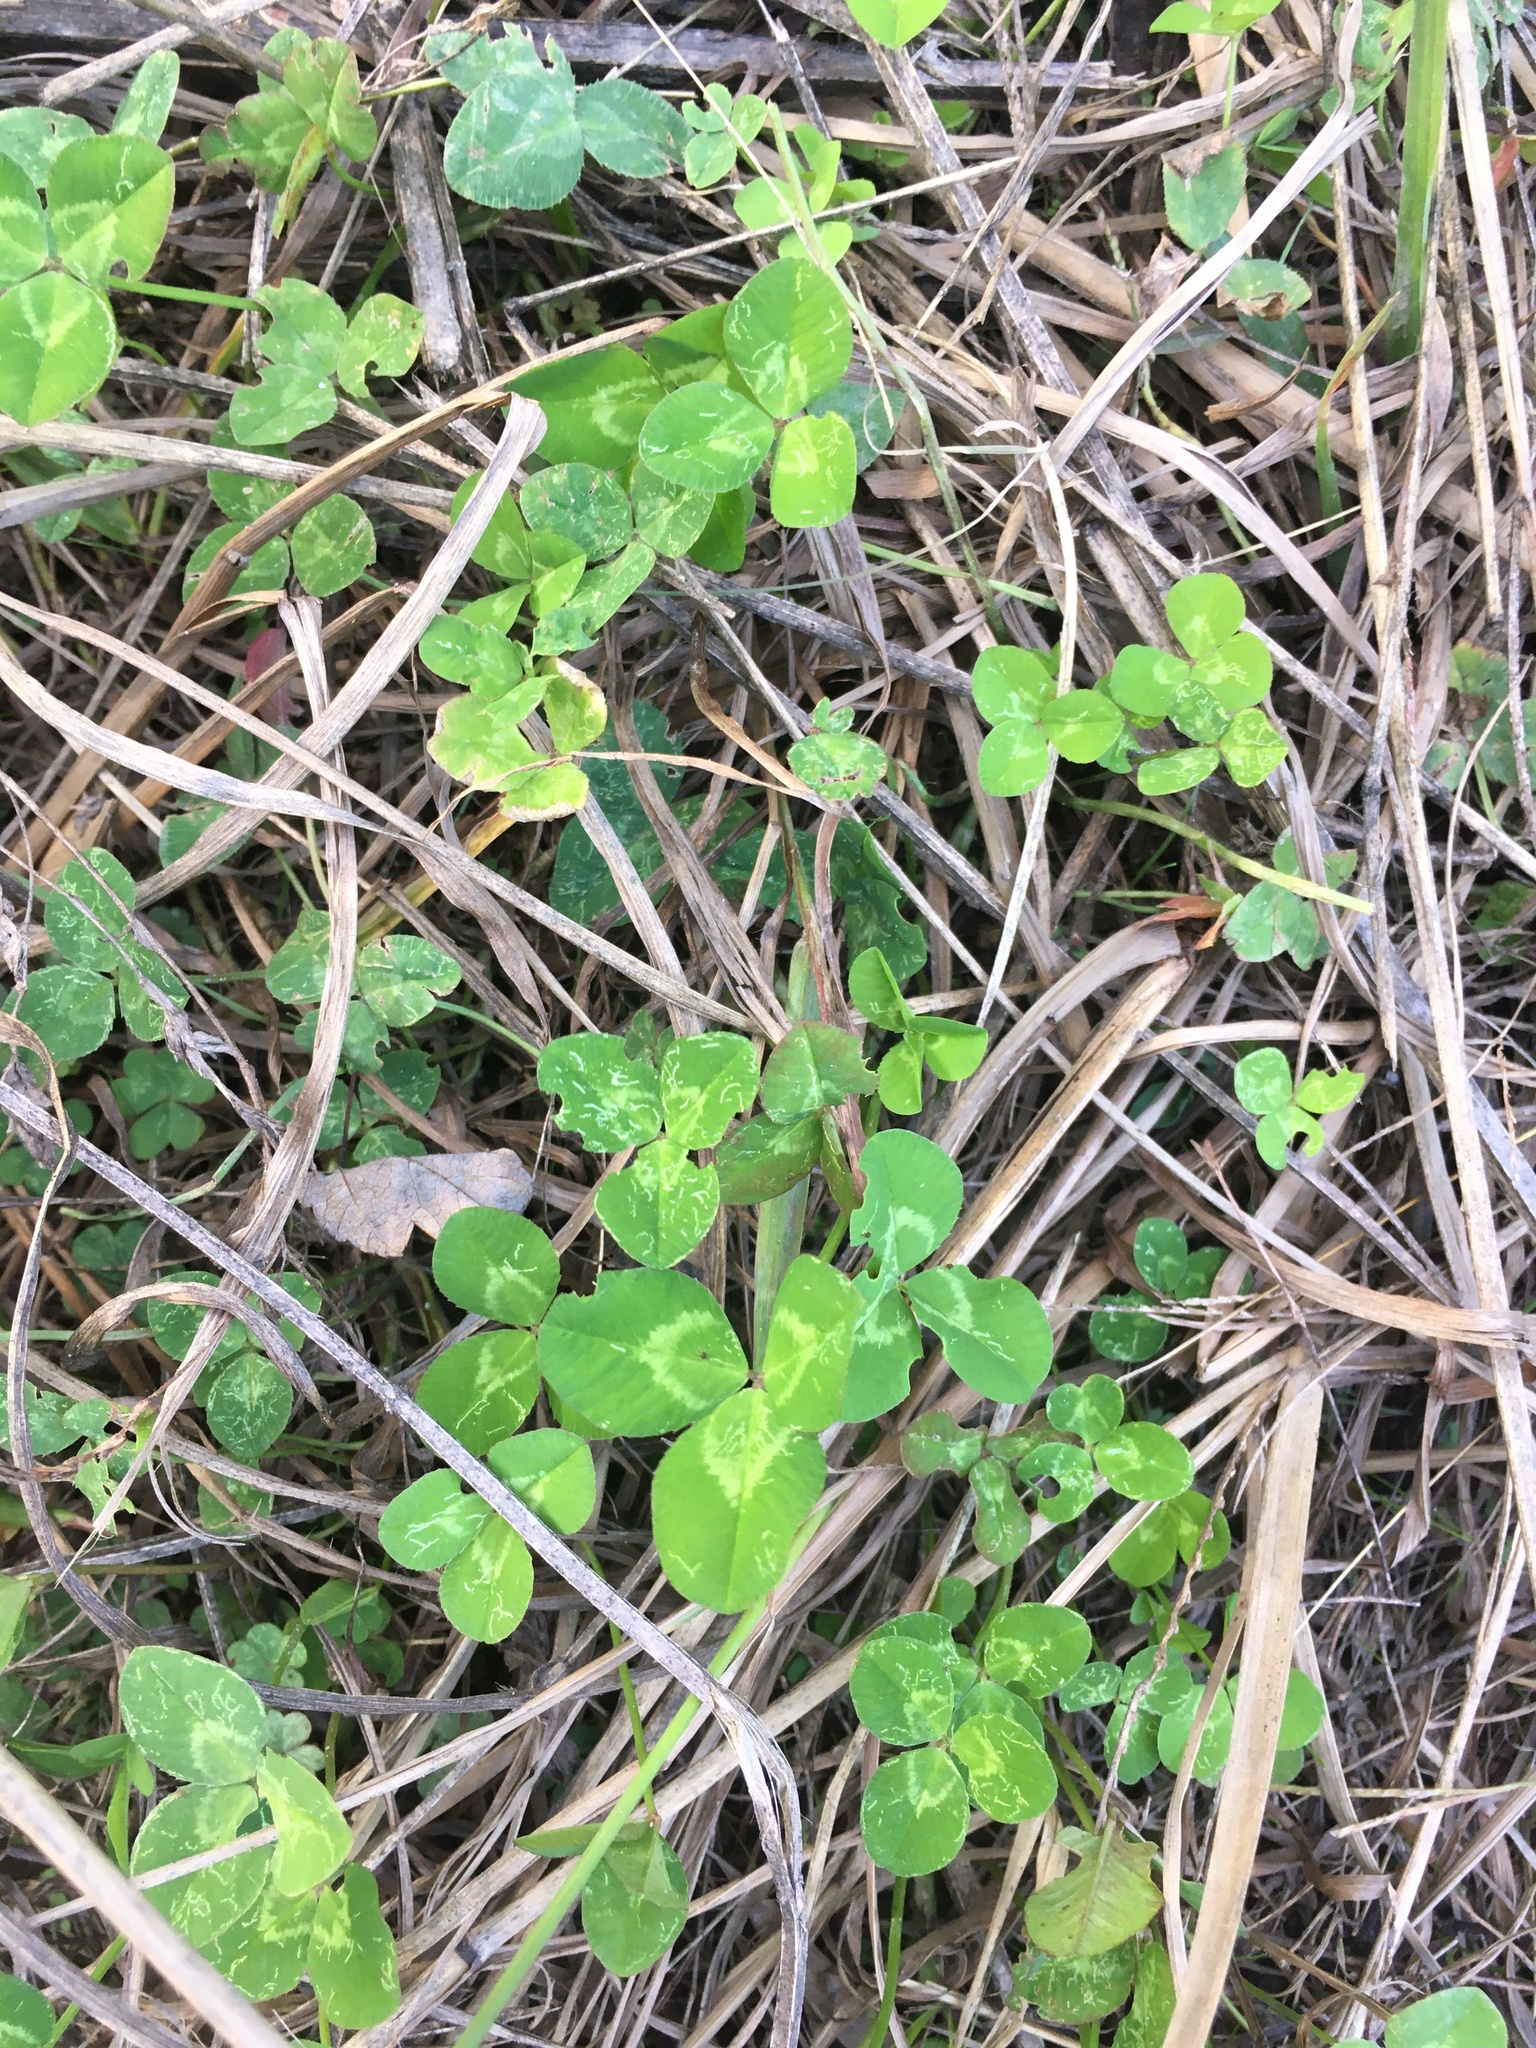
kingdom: Plantae
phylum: Tracheophyta
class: Magnoliopsida
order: Fabales
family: Fabaceae
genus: Trifolium
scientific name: Trifolium repens
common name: White clover
